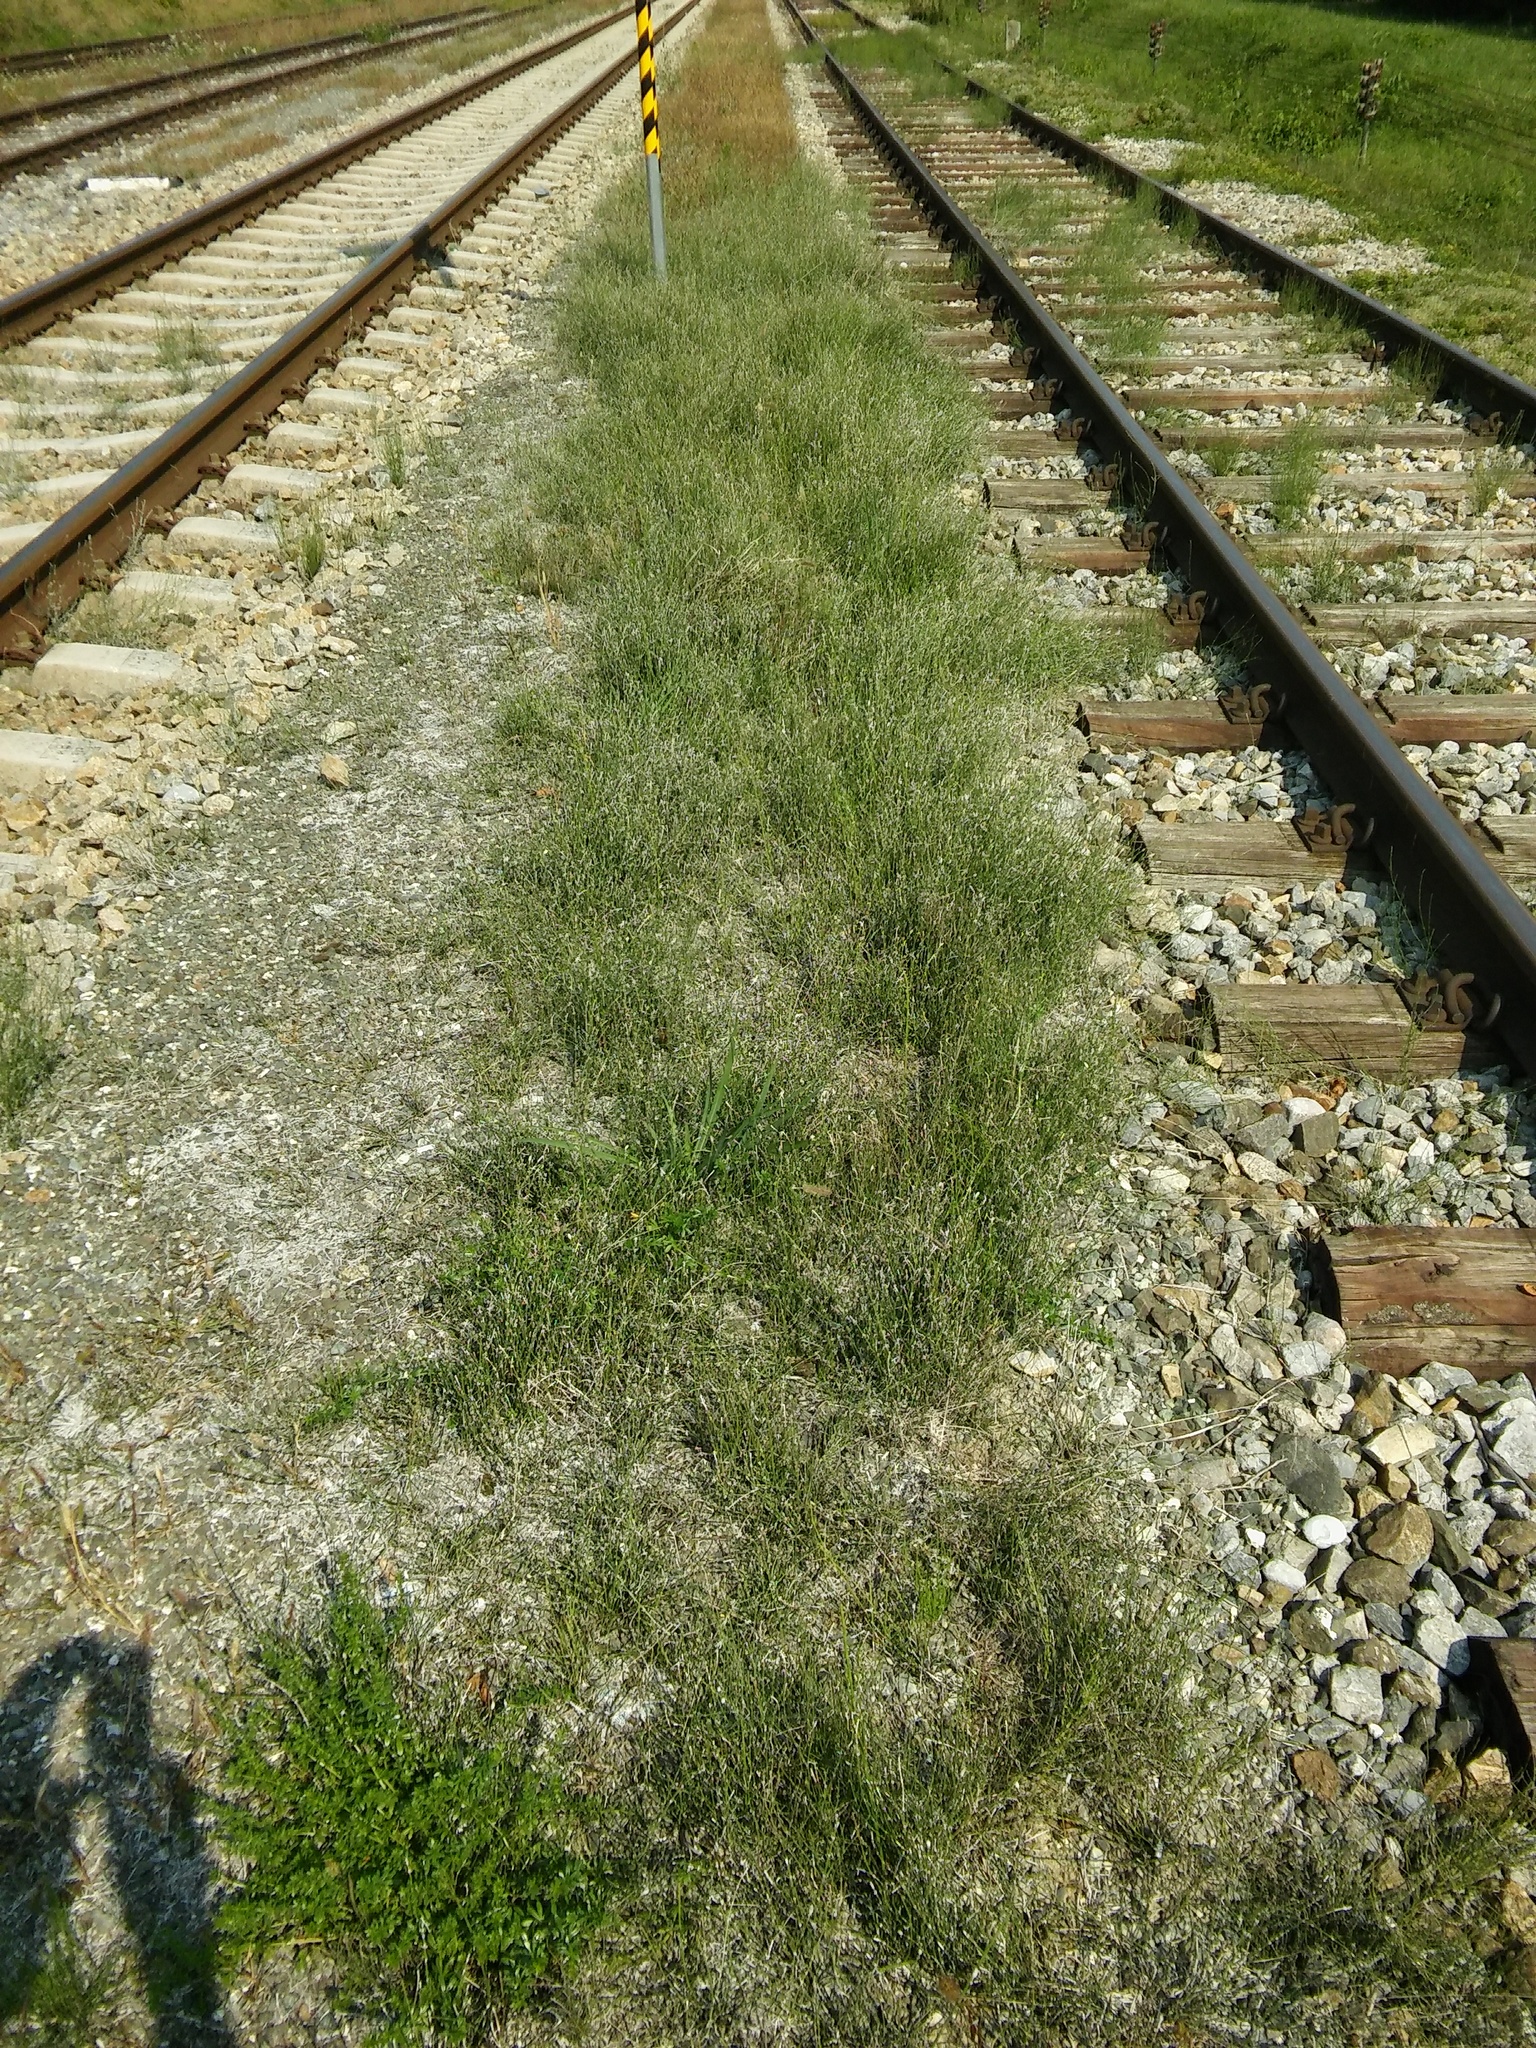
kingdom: Plantae
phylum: Tracheophyta
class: Polypodiopsida
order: Equisetales
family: Equisetaceae
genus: Equisetum
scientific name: Equisetum ramosissimum
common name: Branched horsetail
